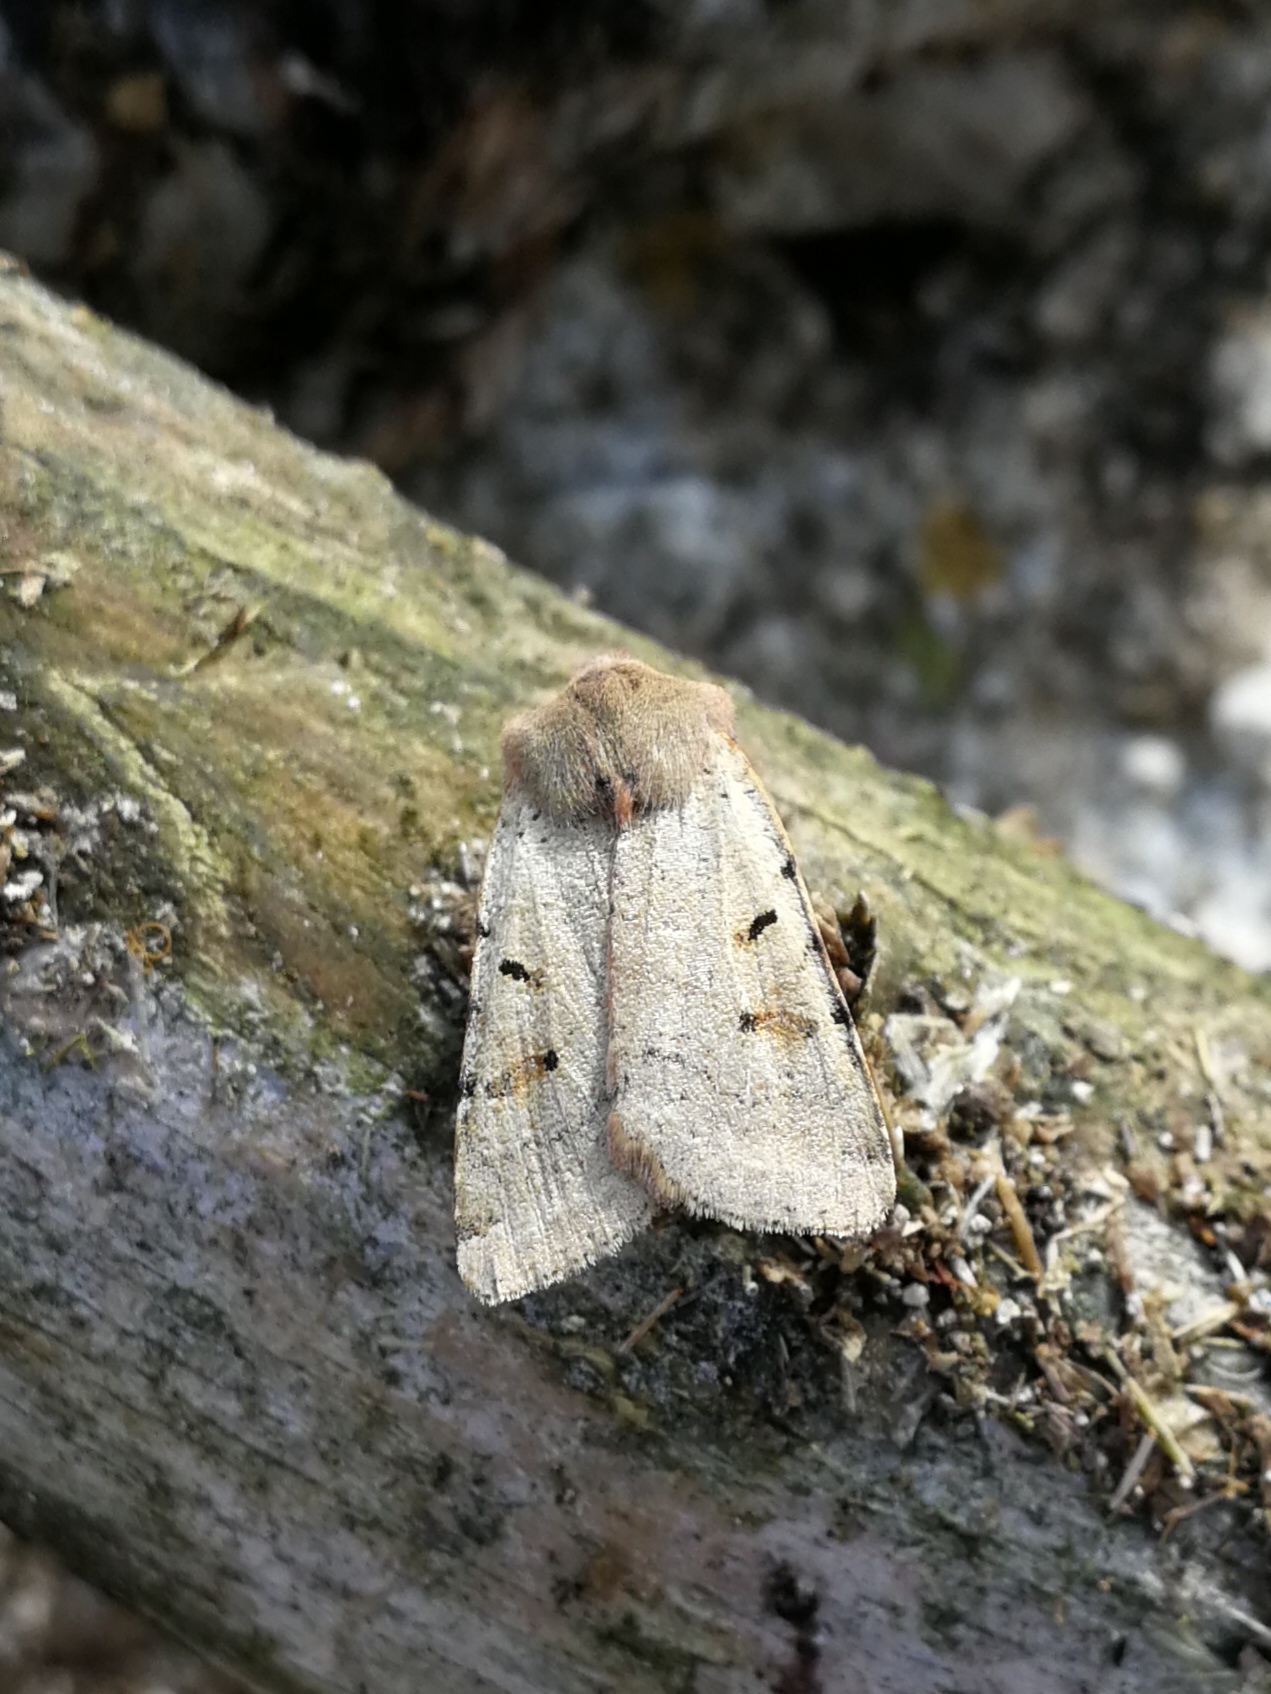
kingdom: Animalia
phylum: Arthropoda
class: Insecta
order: Lepidoptera
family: Noctuidae
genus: Agrochola
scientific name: Agrochola lychnidis
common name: Beaded chestnut
